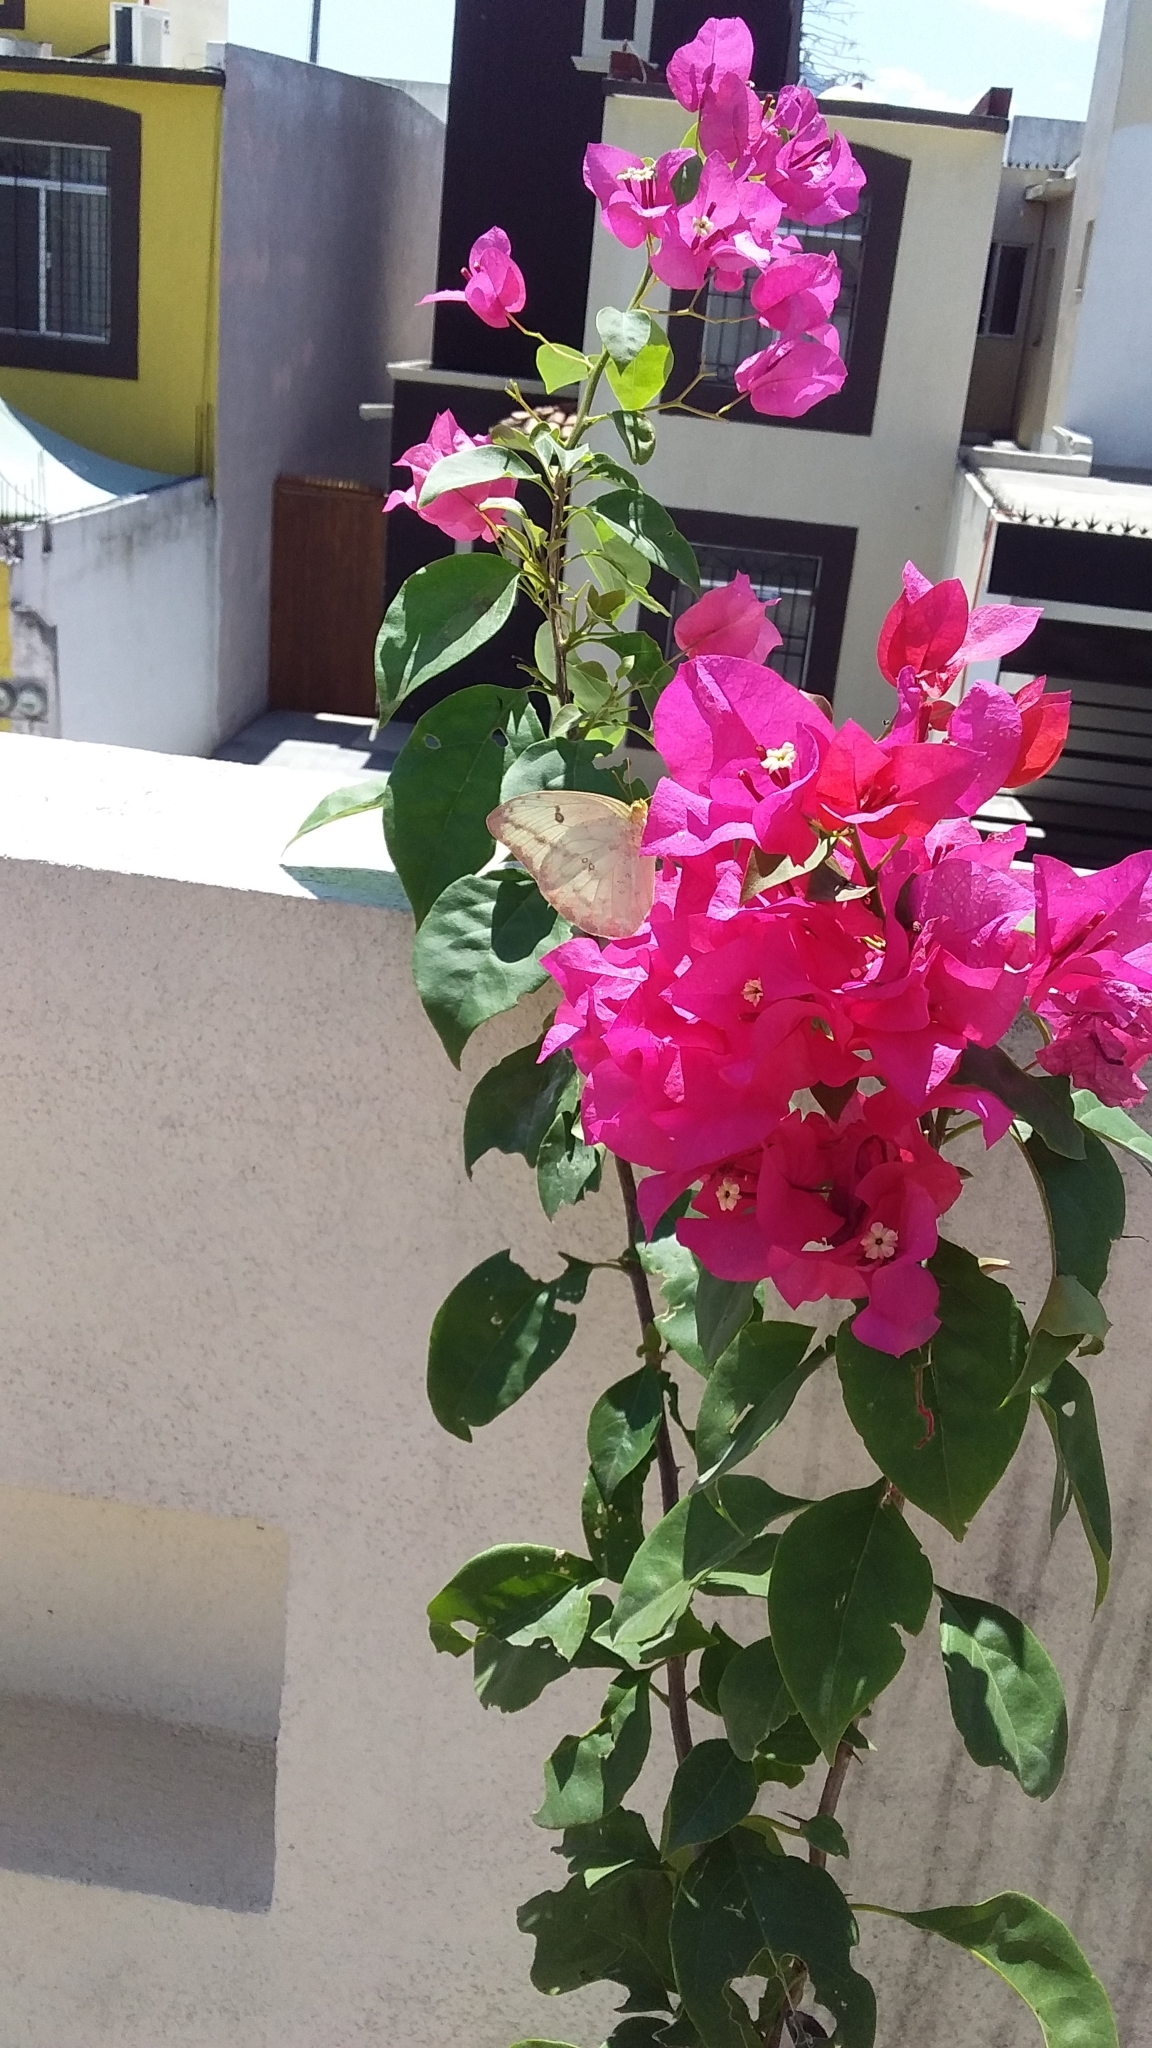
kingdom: Animalia
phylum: Arthropoda
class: Insecta
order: Lepidoptera
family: Pieridae
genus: Phoebis
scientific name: Phoebis agarithe
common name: Large orange sulphur
